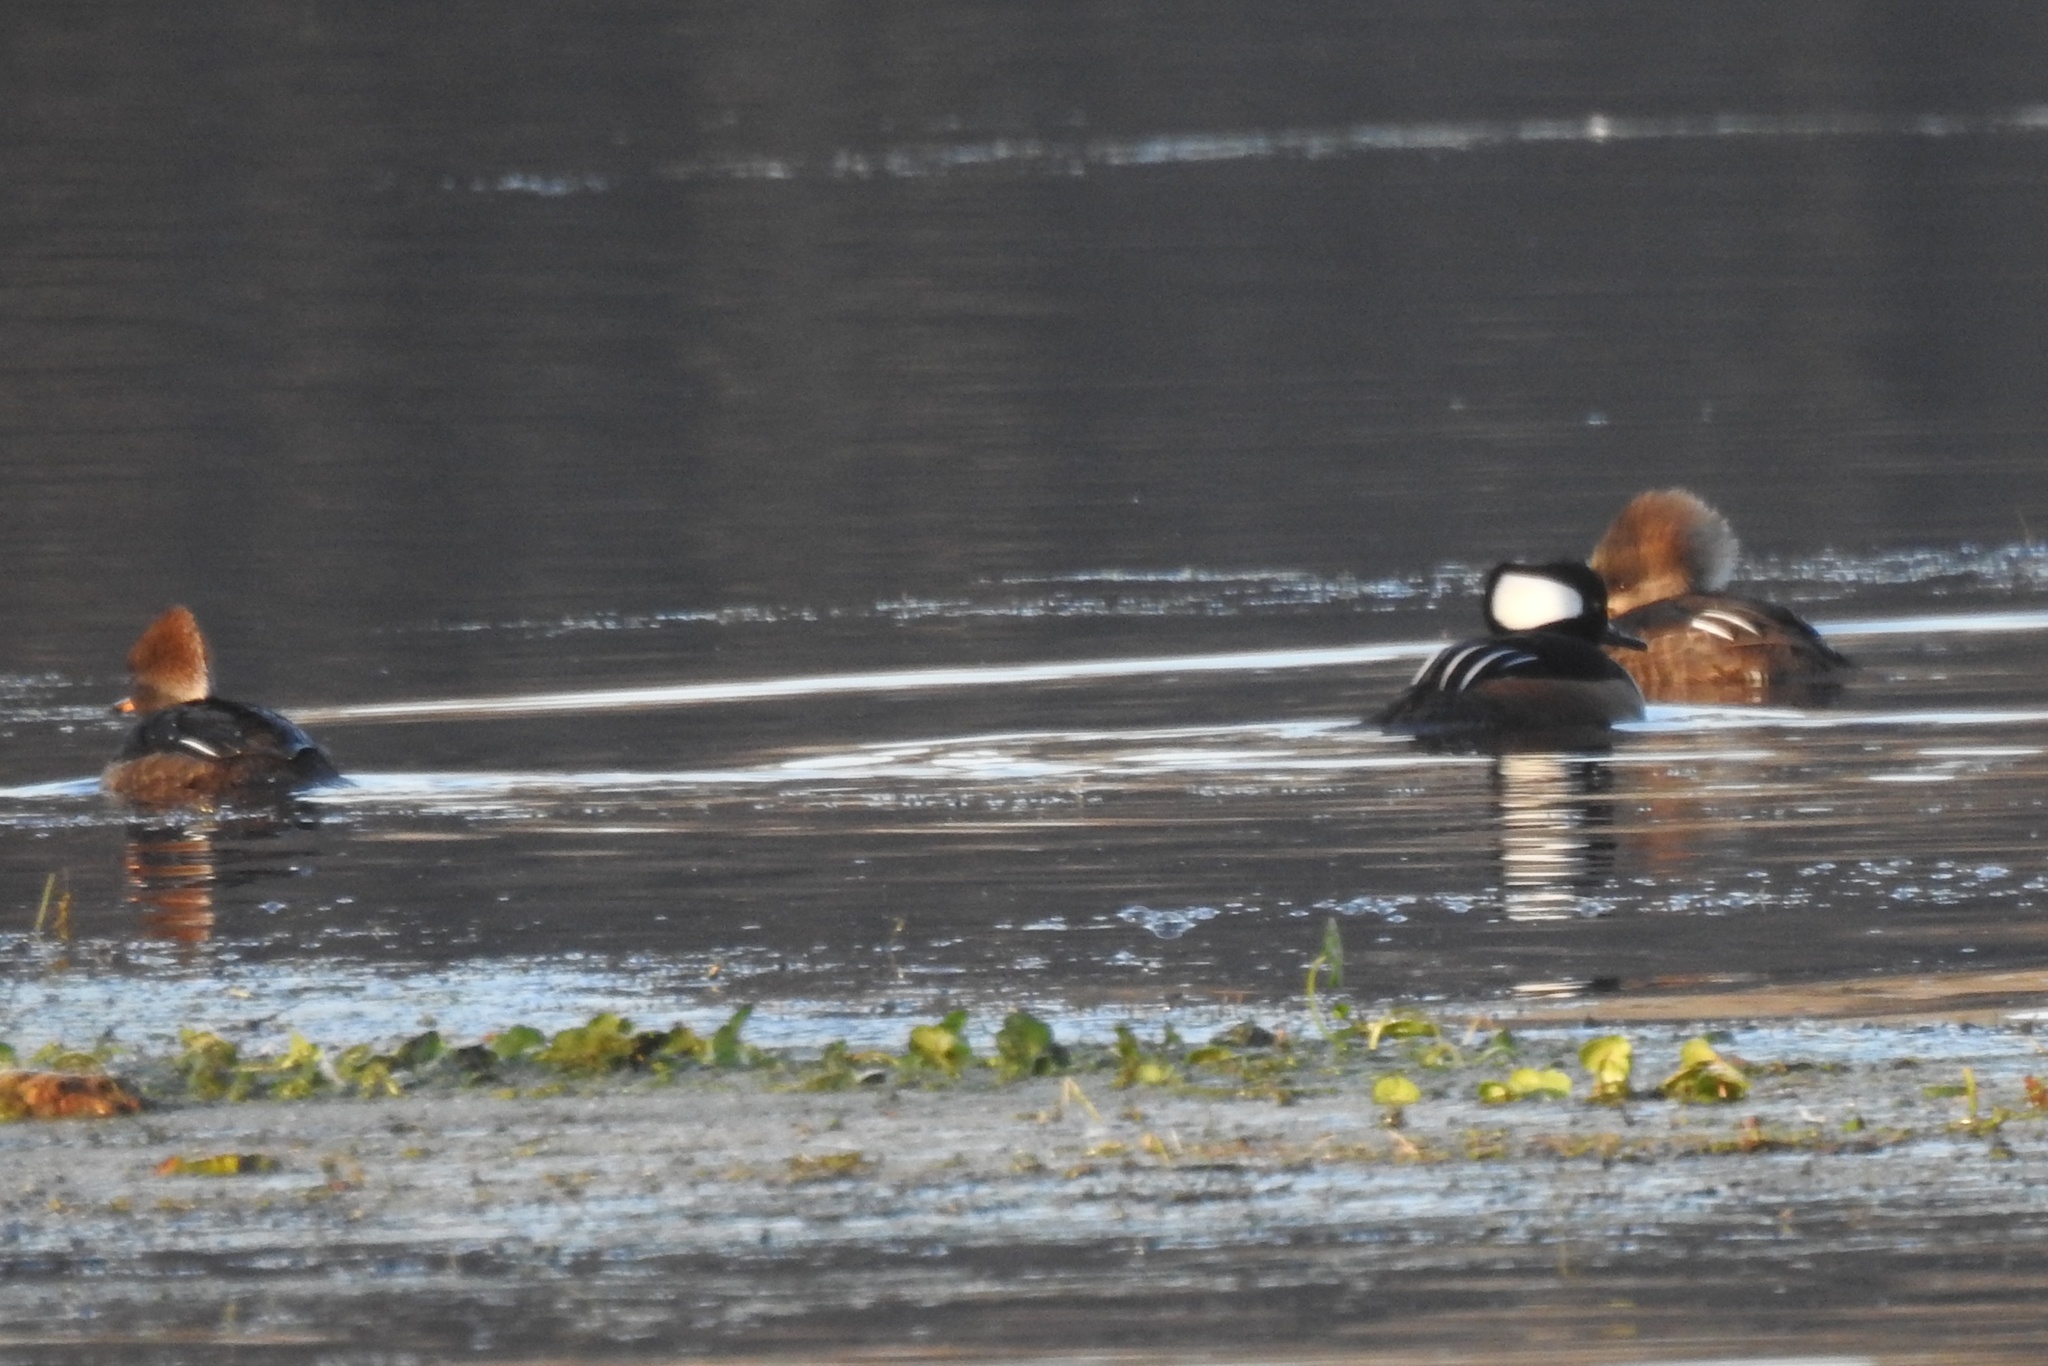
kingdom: Animalia
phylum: Chordata
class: Aves
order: Anseriformes
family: Anatidae
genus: Lophodytes
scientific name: Lophodytes cucullatus
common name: Hooded merganser
